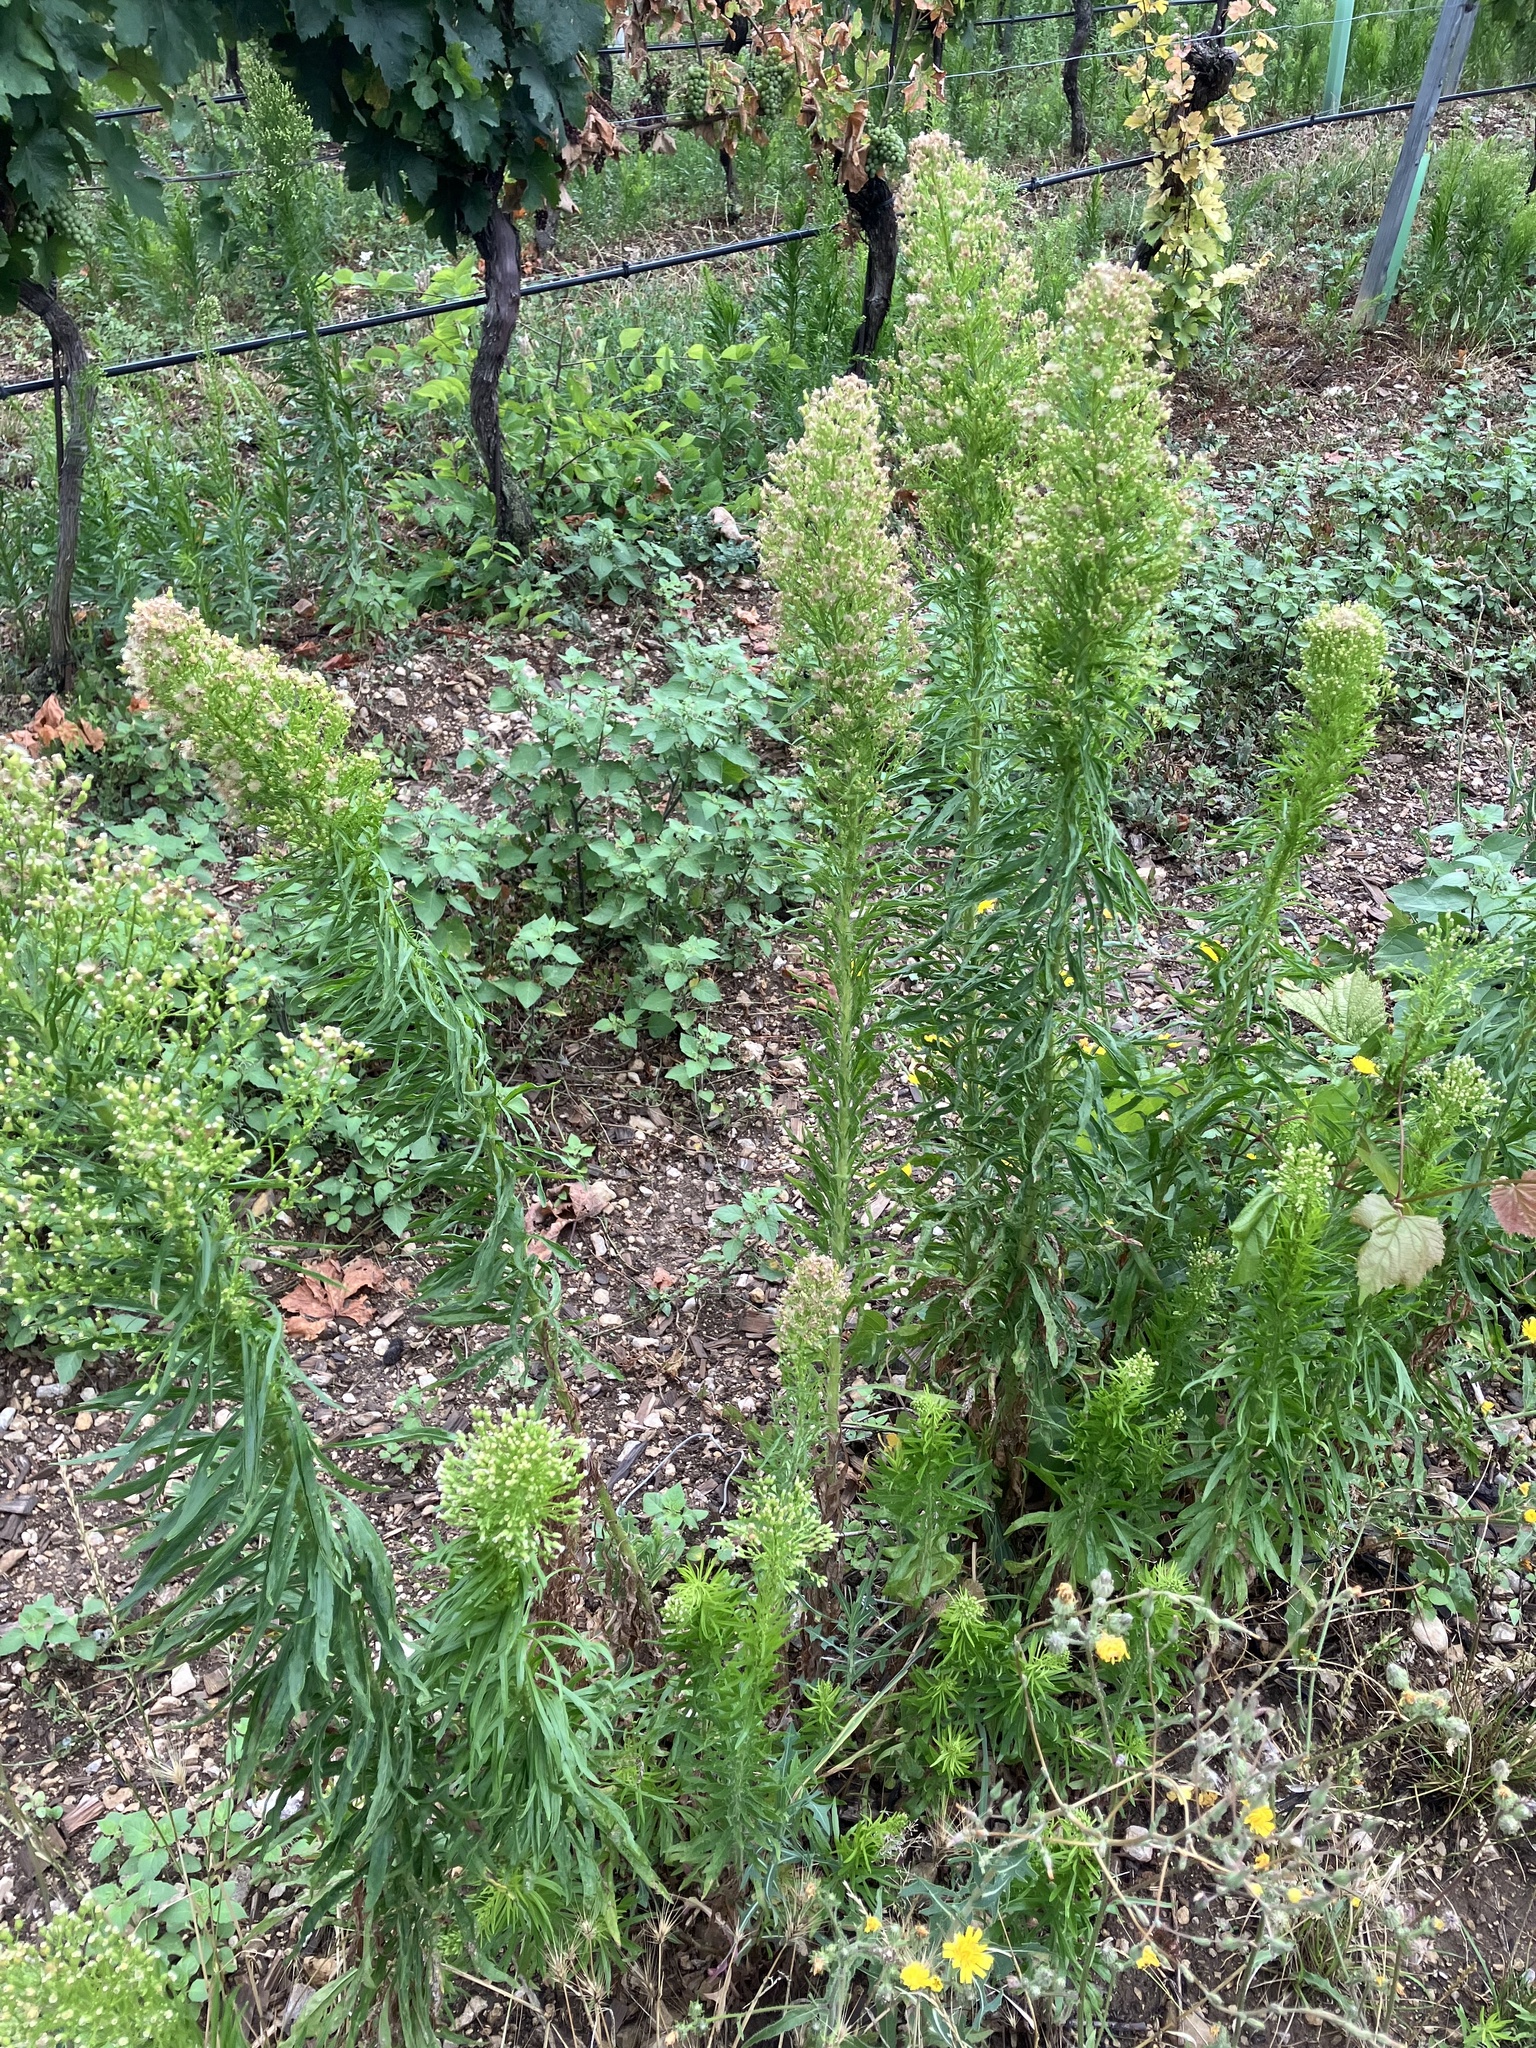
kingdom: Plantae
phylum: Tracheophyta
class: Magnoliopsida
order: Asterales
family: Asteraceae
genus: Erigeron
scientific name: Erigeron canadensis
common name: Canadian fleabane
